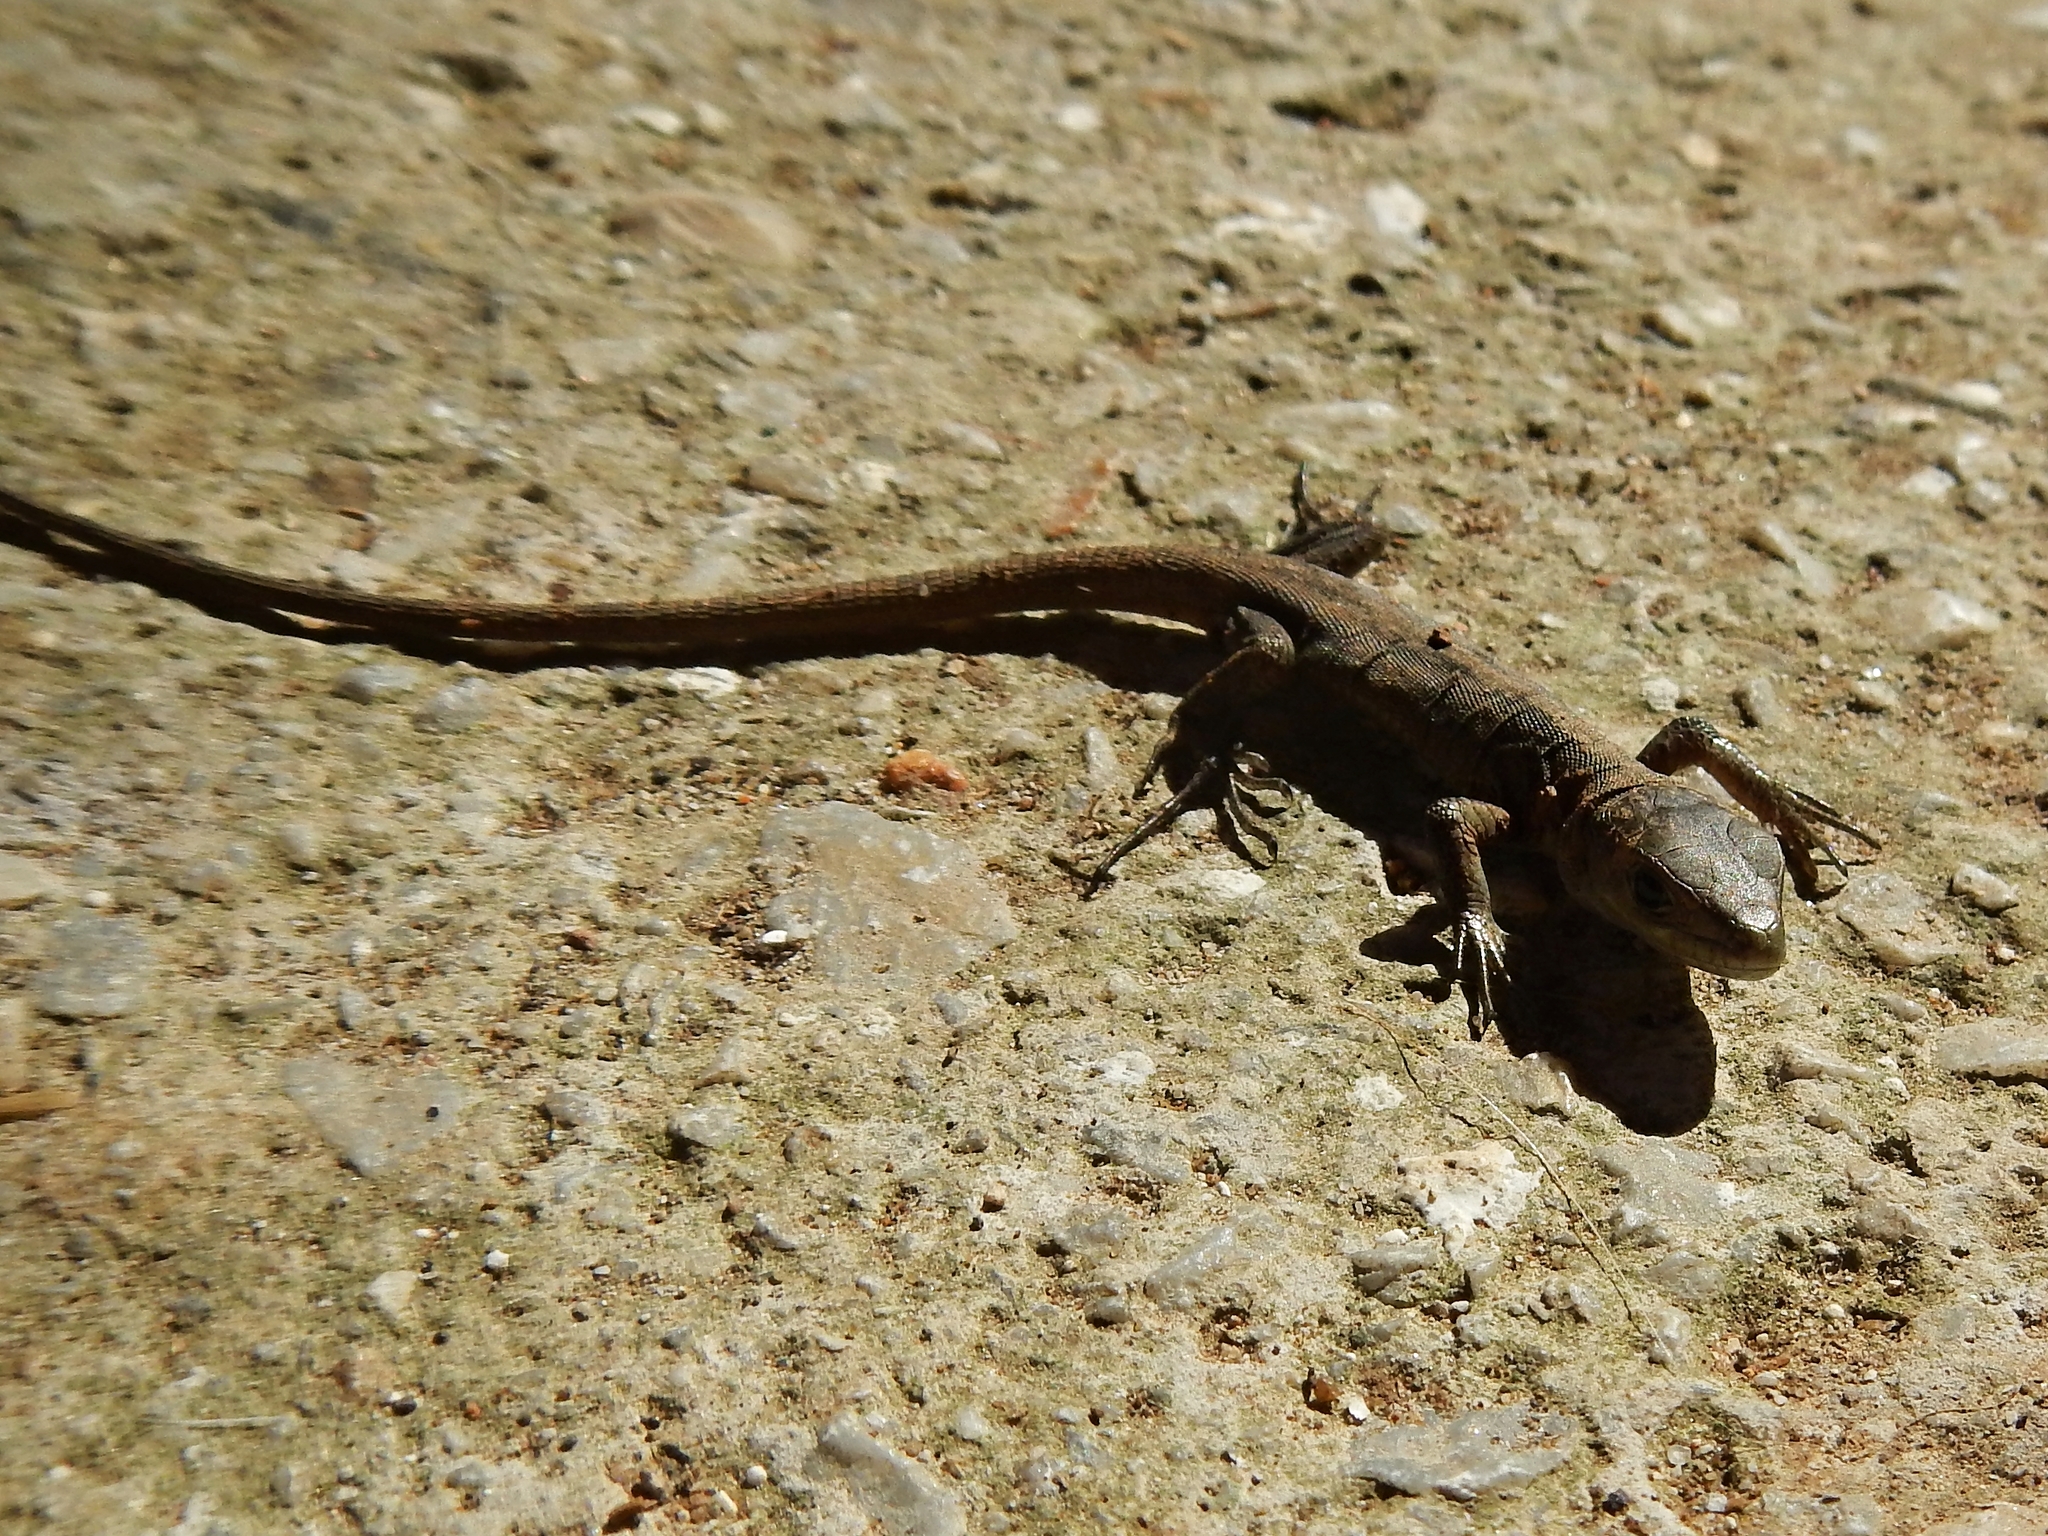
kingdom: Animalia
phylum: Chordata
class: Squamata
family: Lacertidae
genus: Lacerta
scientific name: Lacerta viridis
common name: European green lizard
